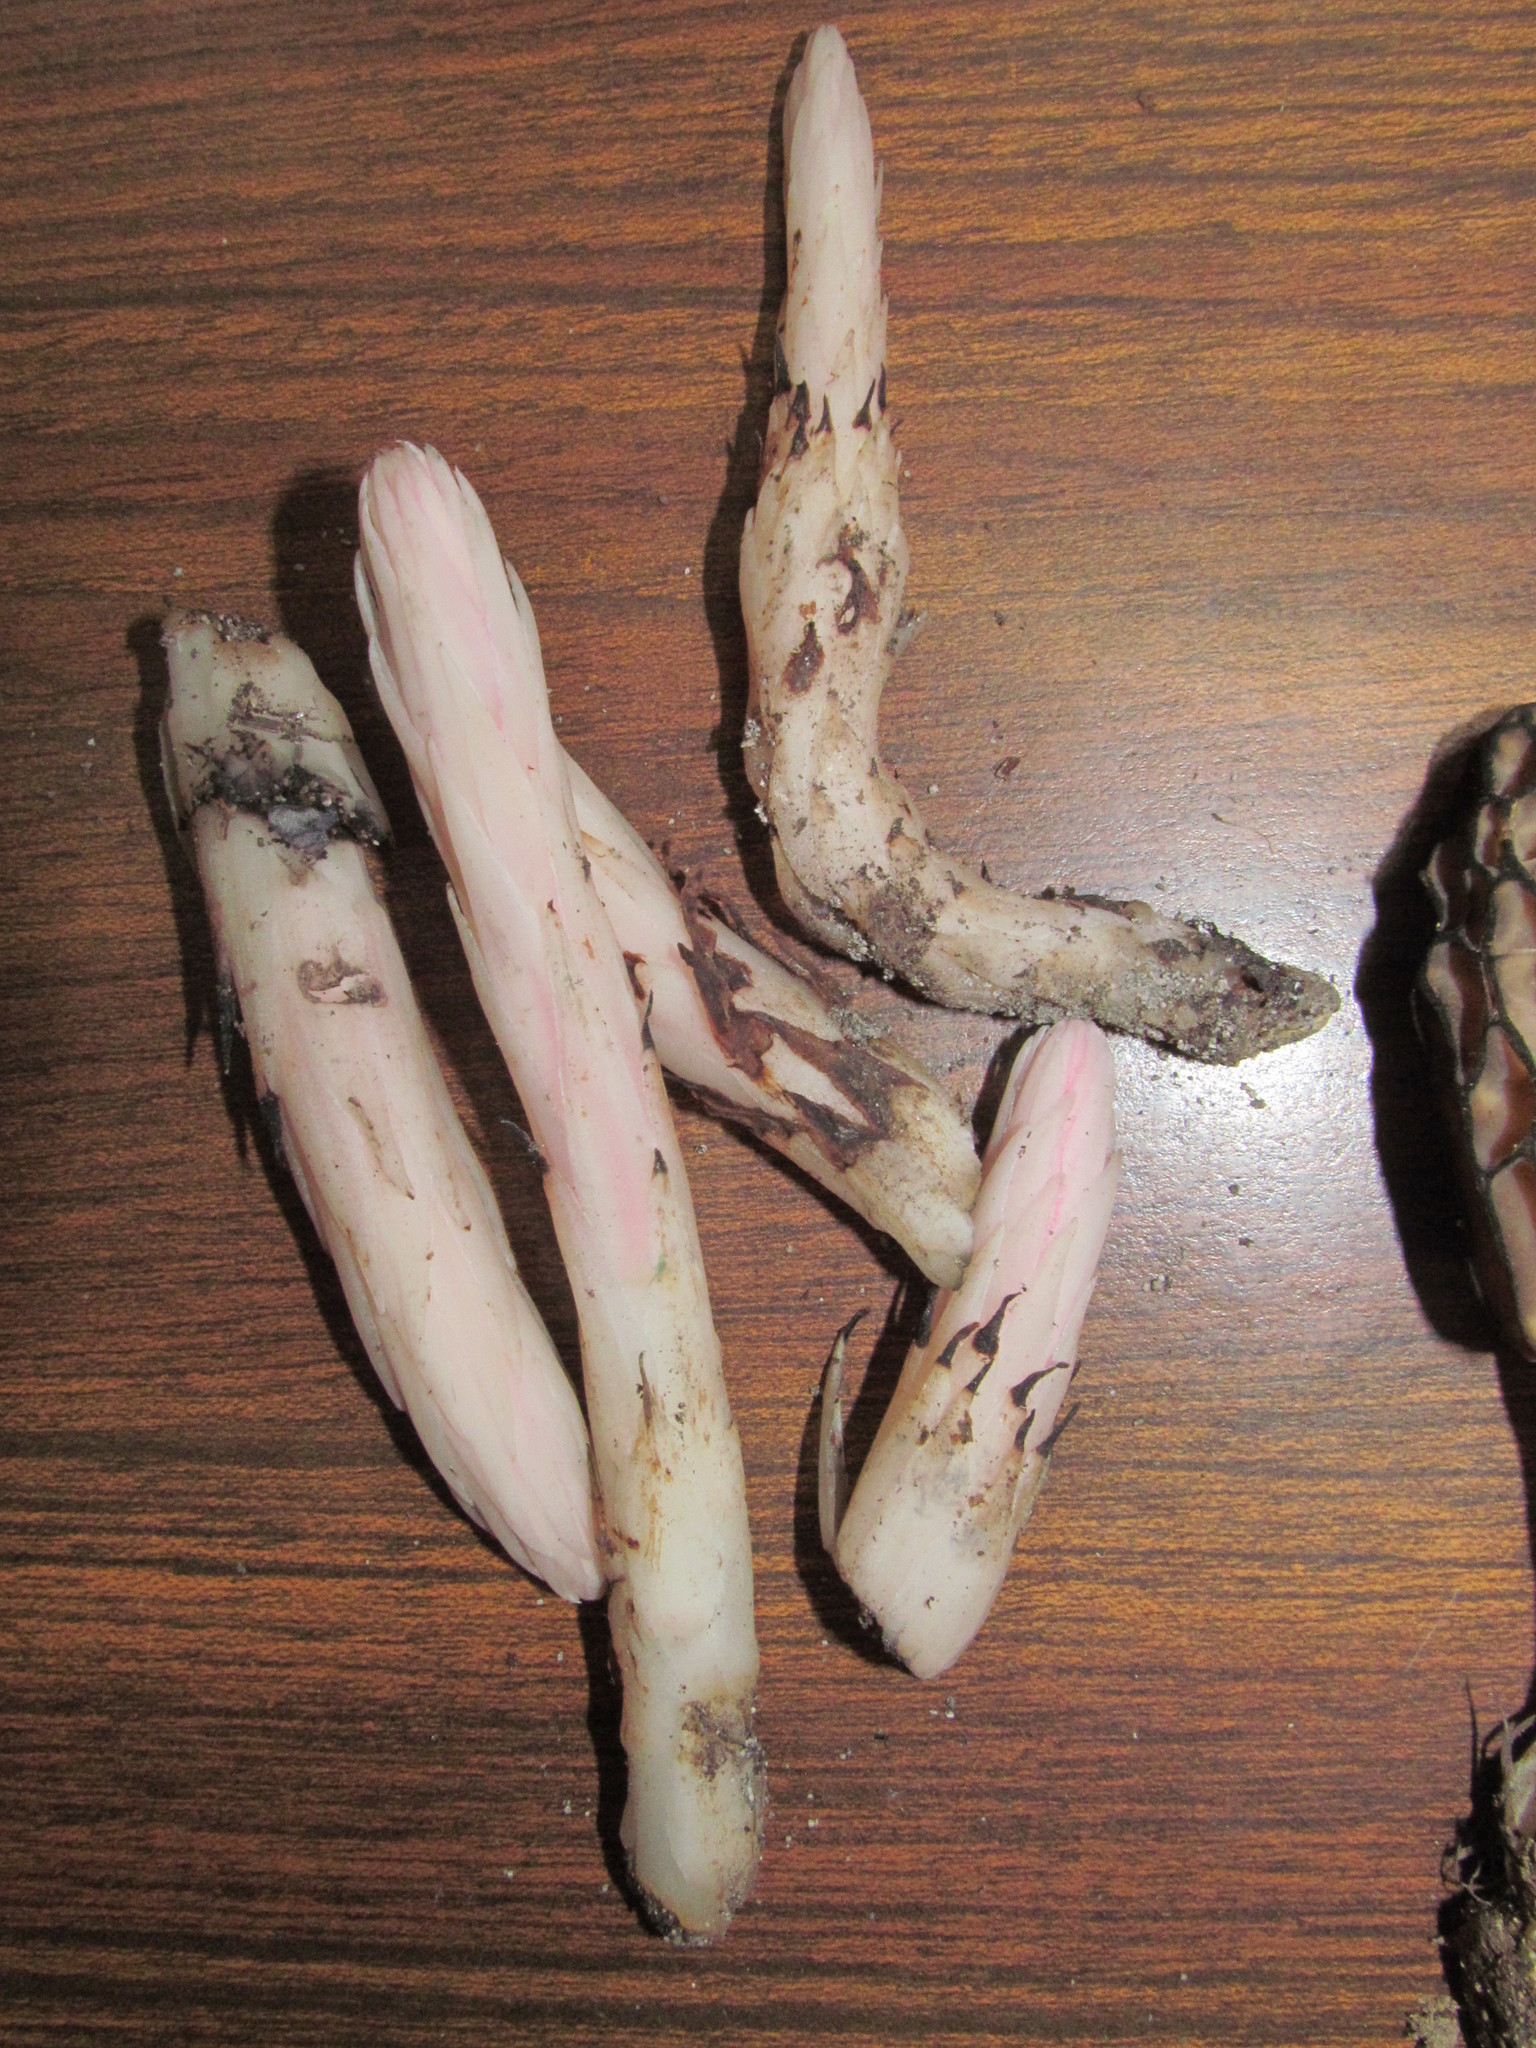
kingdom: Plantae
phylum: Tracheophyta
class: Magnoliopsida
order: Ericales
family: Ericaceae
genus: Allotropa
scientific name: Allotropa virgata
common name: Candy-striped allotropa
